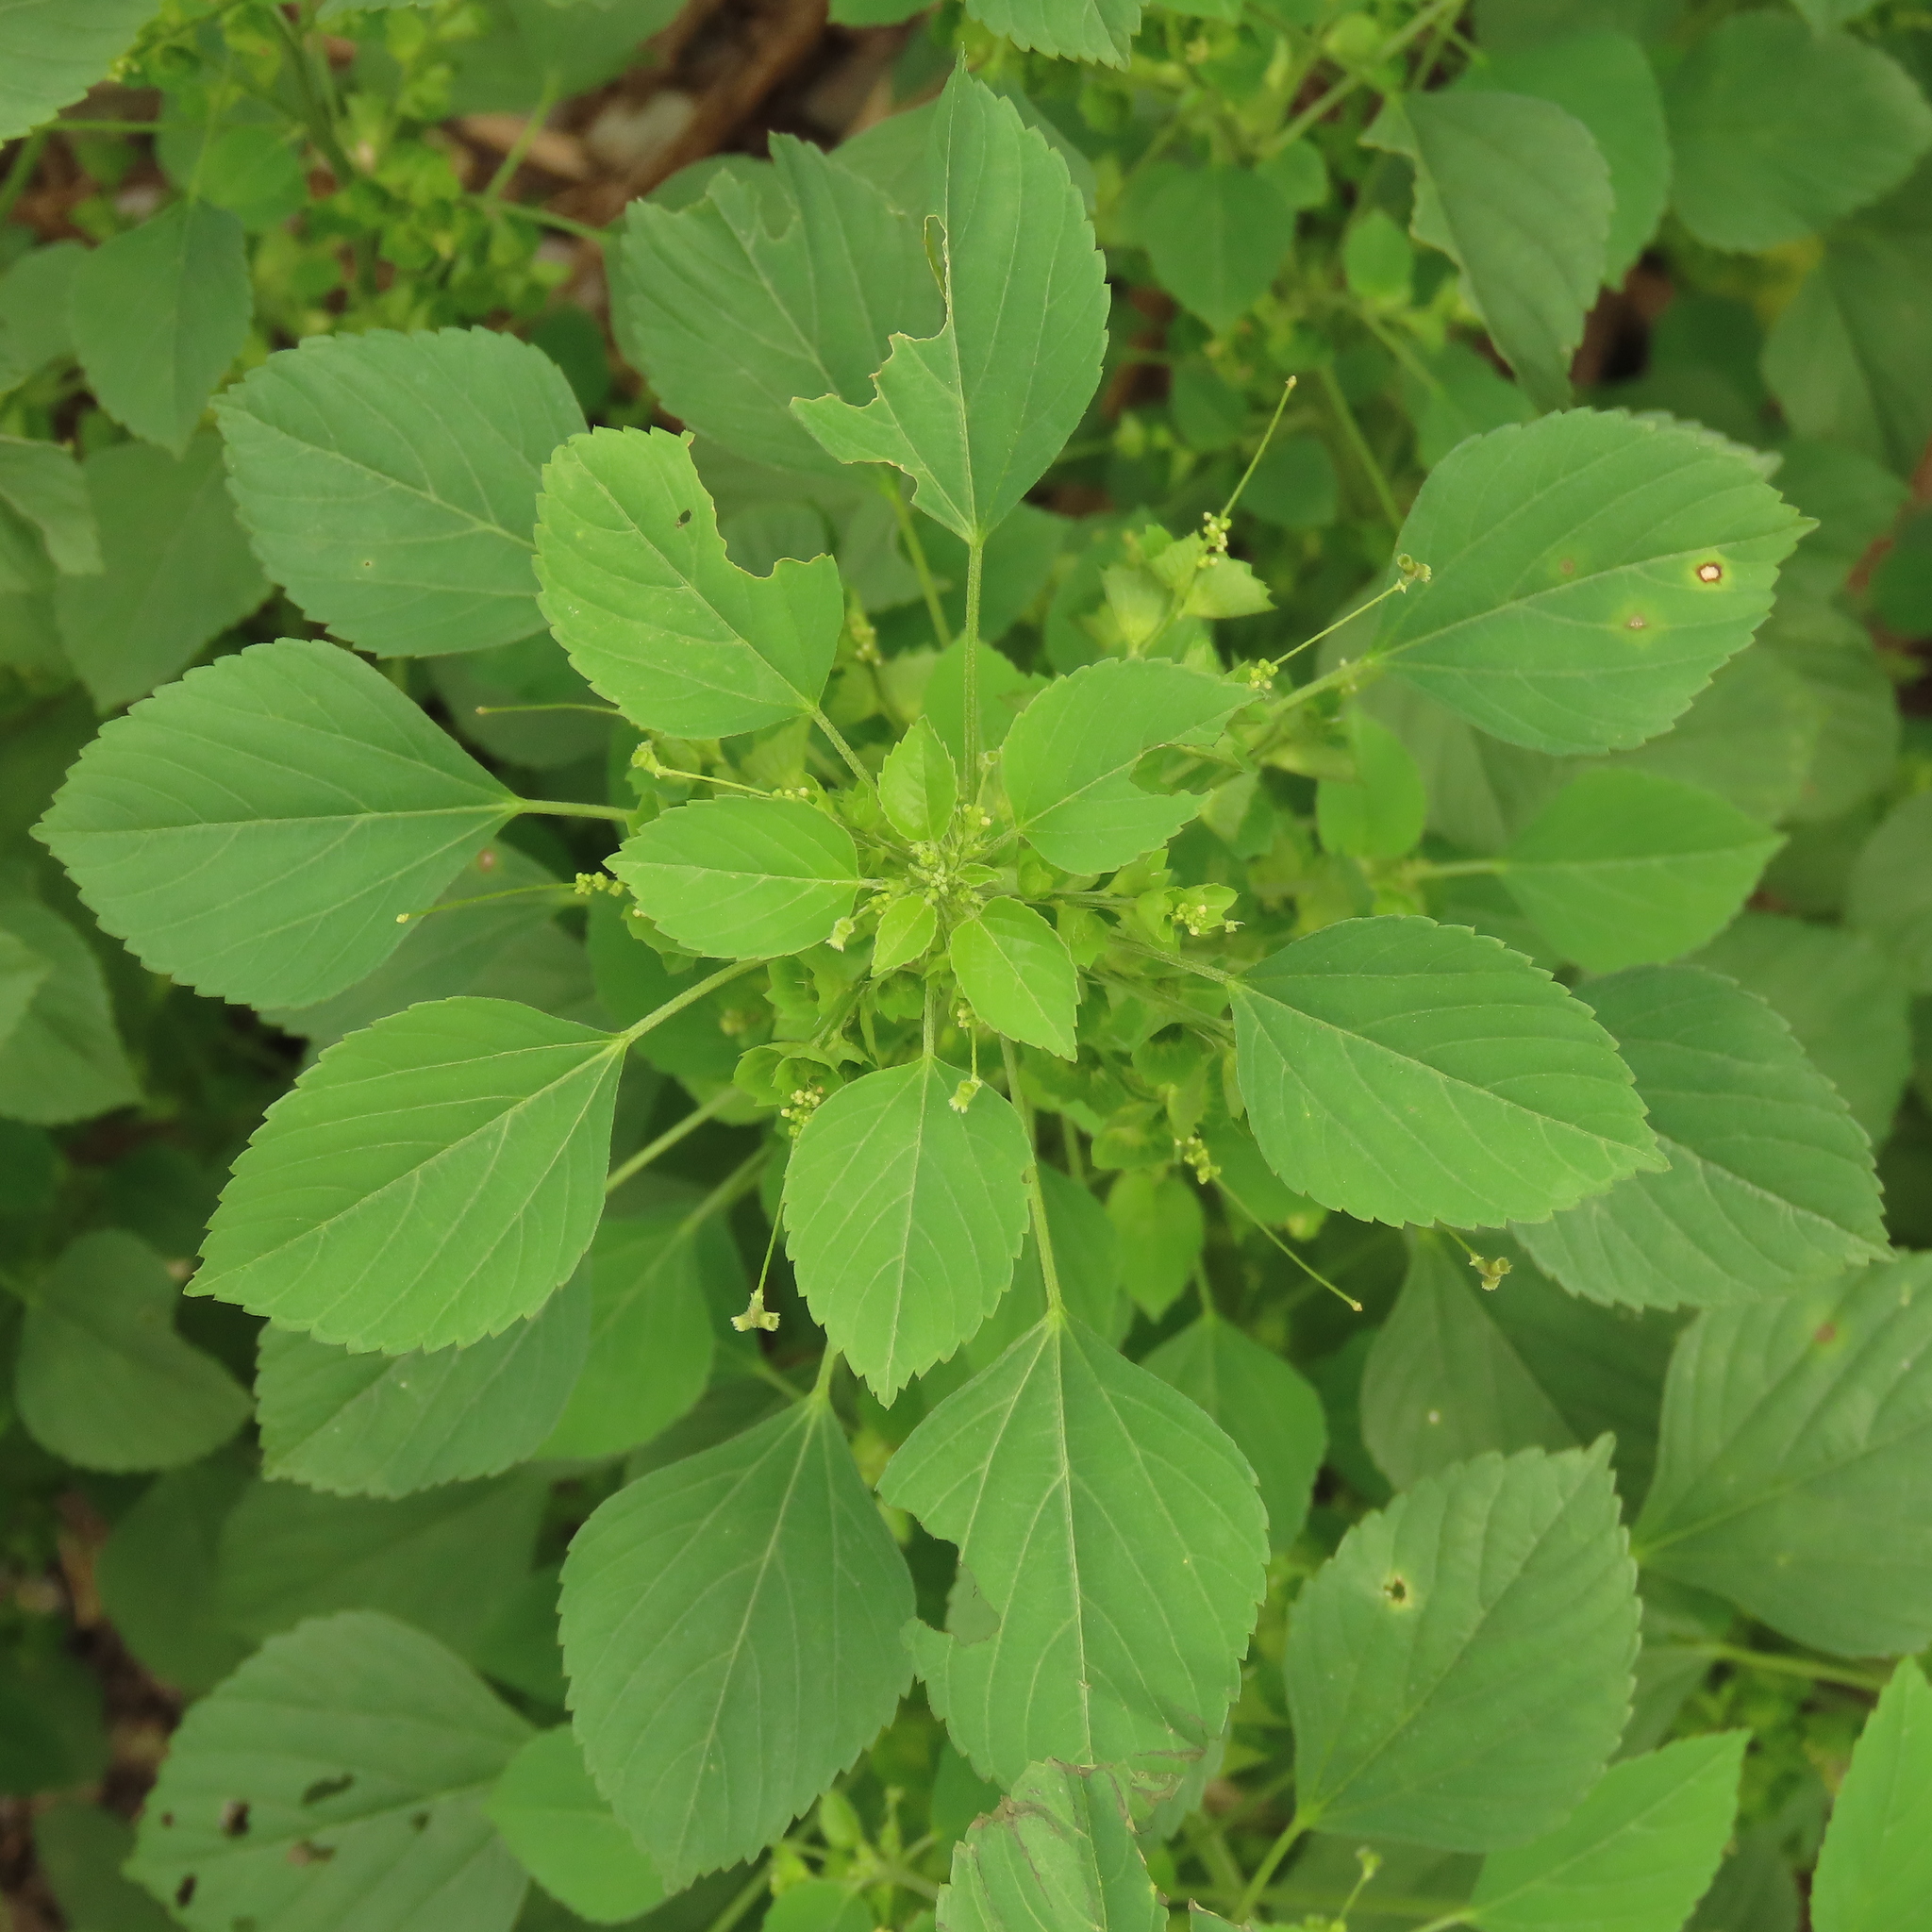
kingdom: Plantae
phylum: Tracheophyta
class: Magnoliopsida
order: Malpighiales
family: Euphorbiaceae
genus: Acalypha
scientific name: Acalypha indica
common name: Indian acalypha
